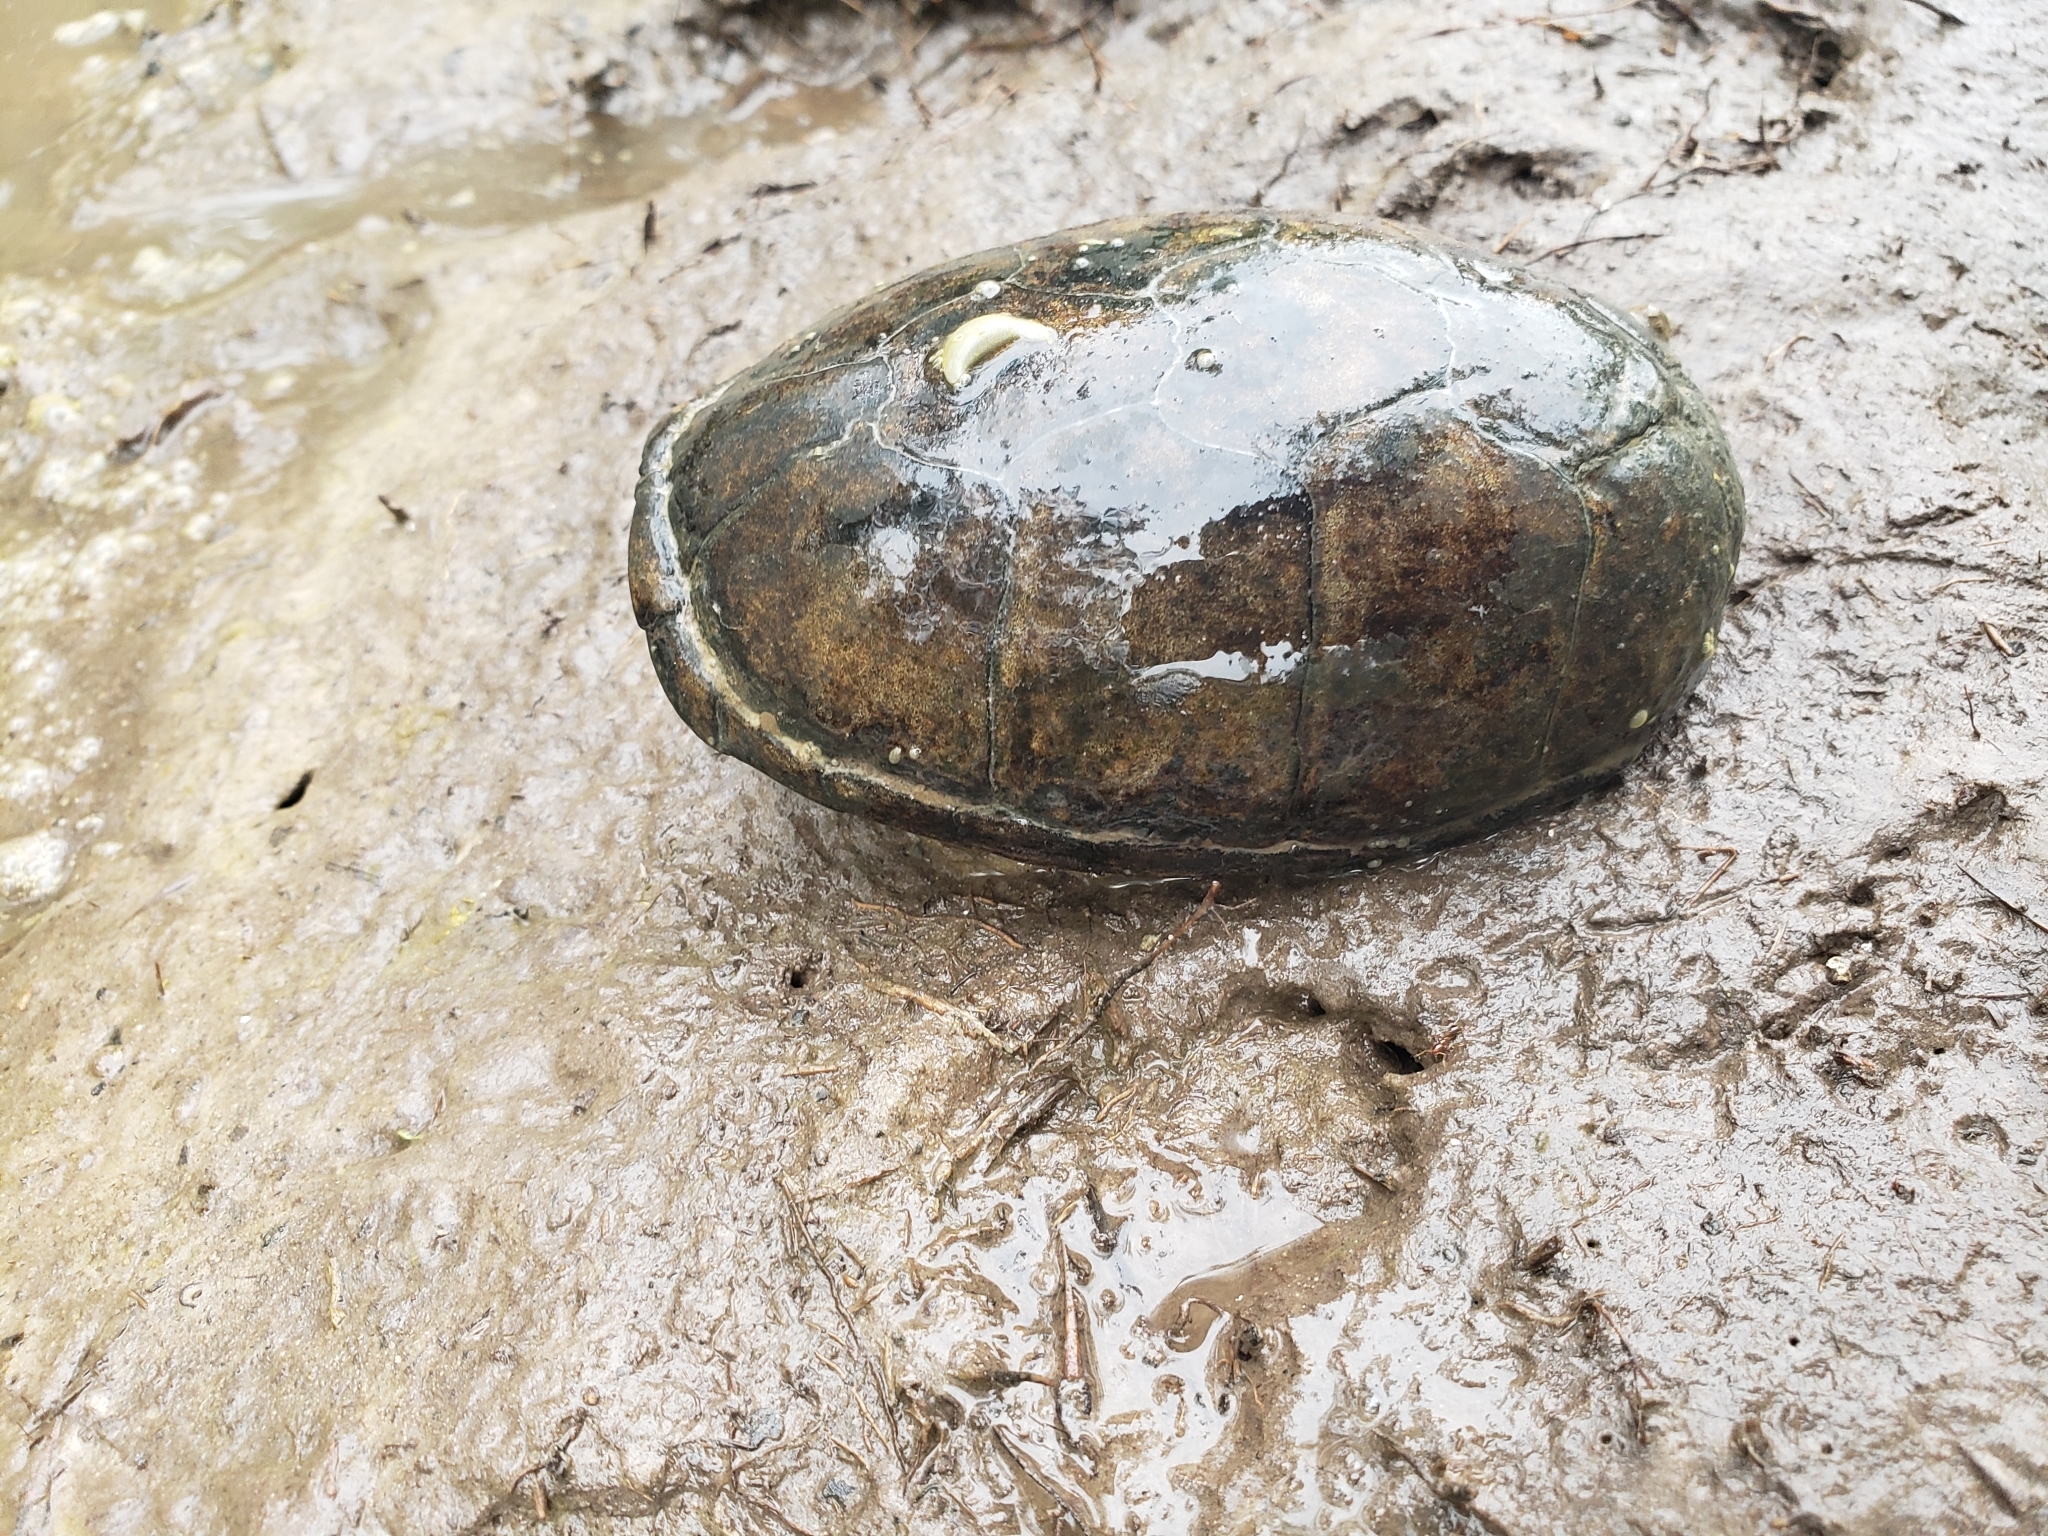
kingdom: Animalia
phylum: Chordata
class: Testudines
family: Kinosternidae
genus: Kinosternon
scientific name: Kinosternon subrubrum
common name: Eastern mud turtle
